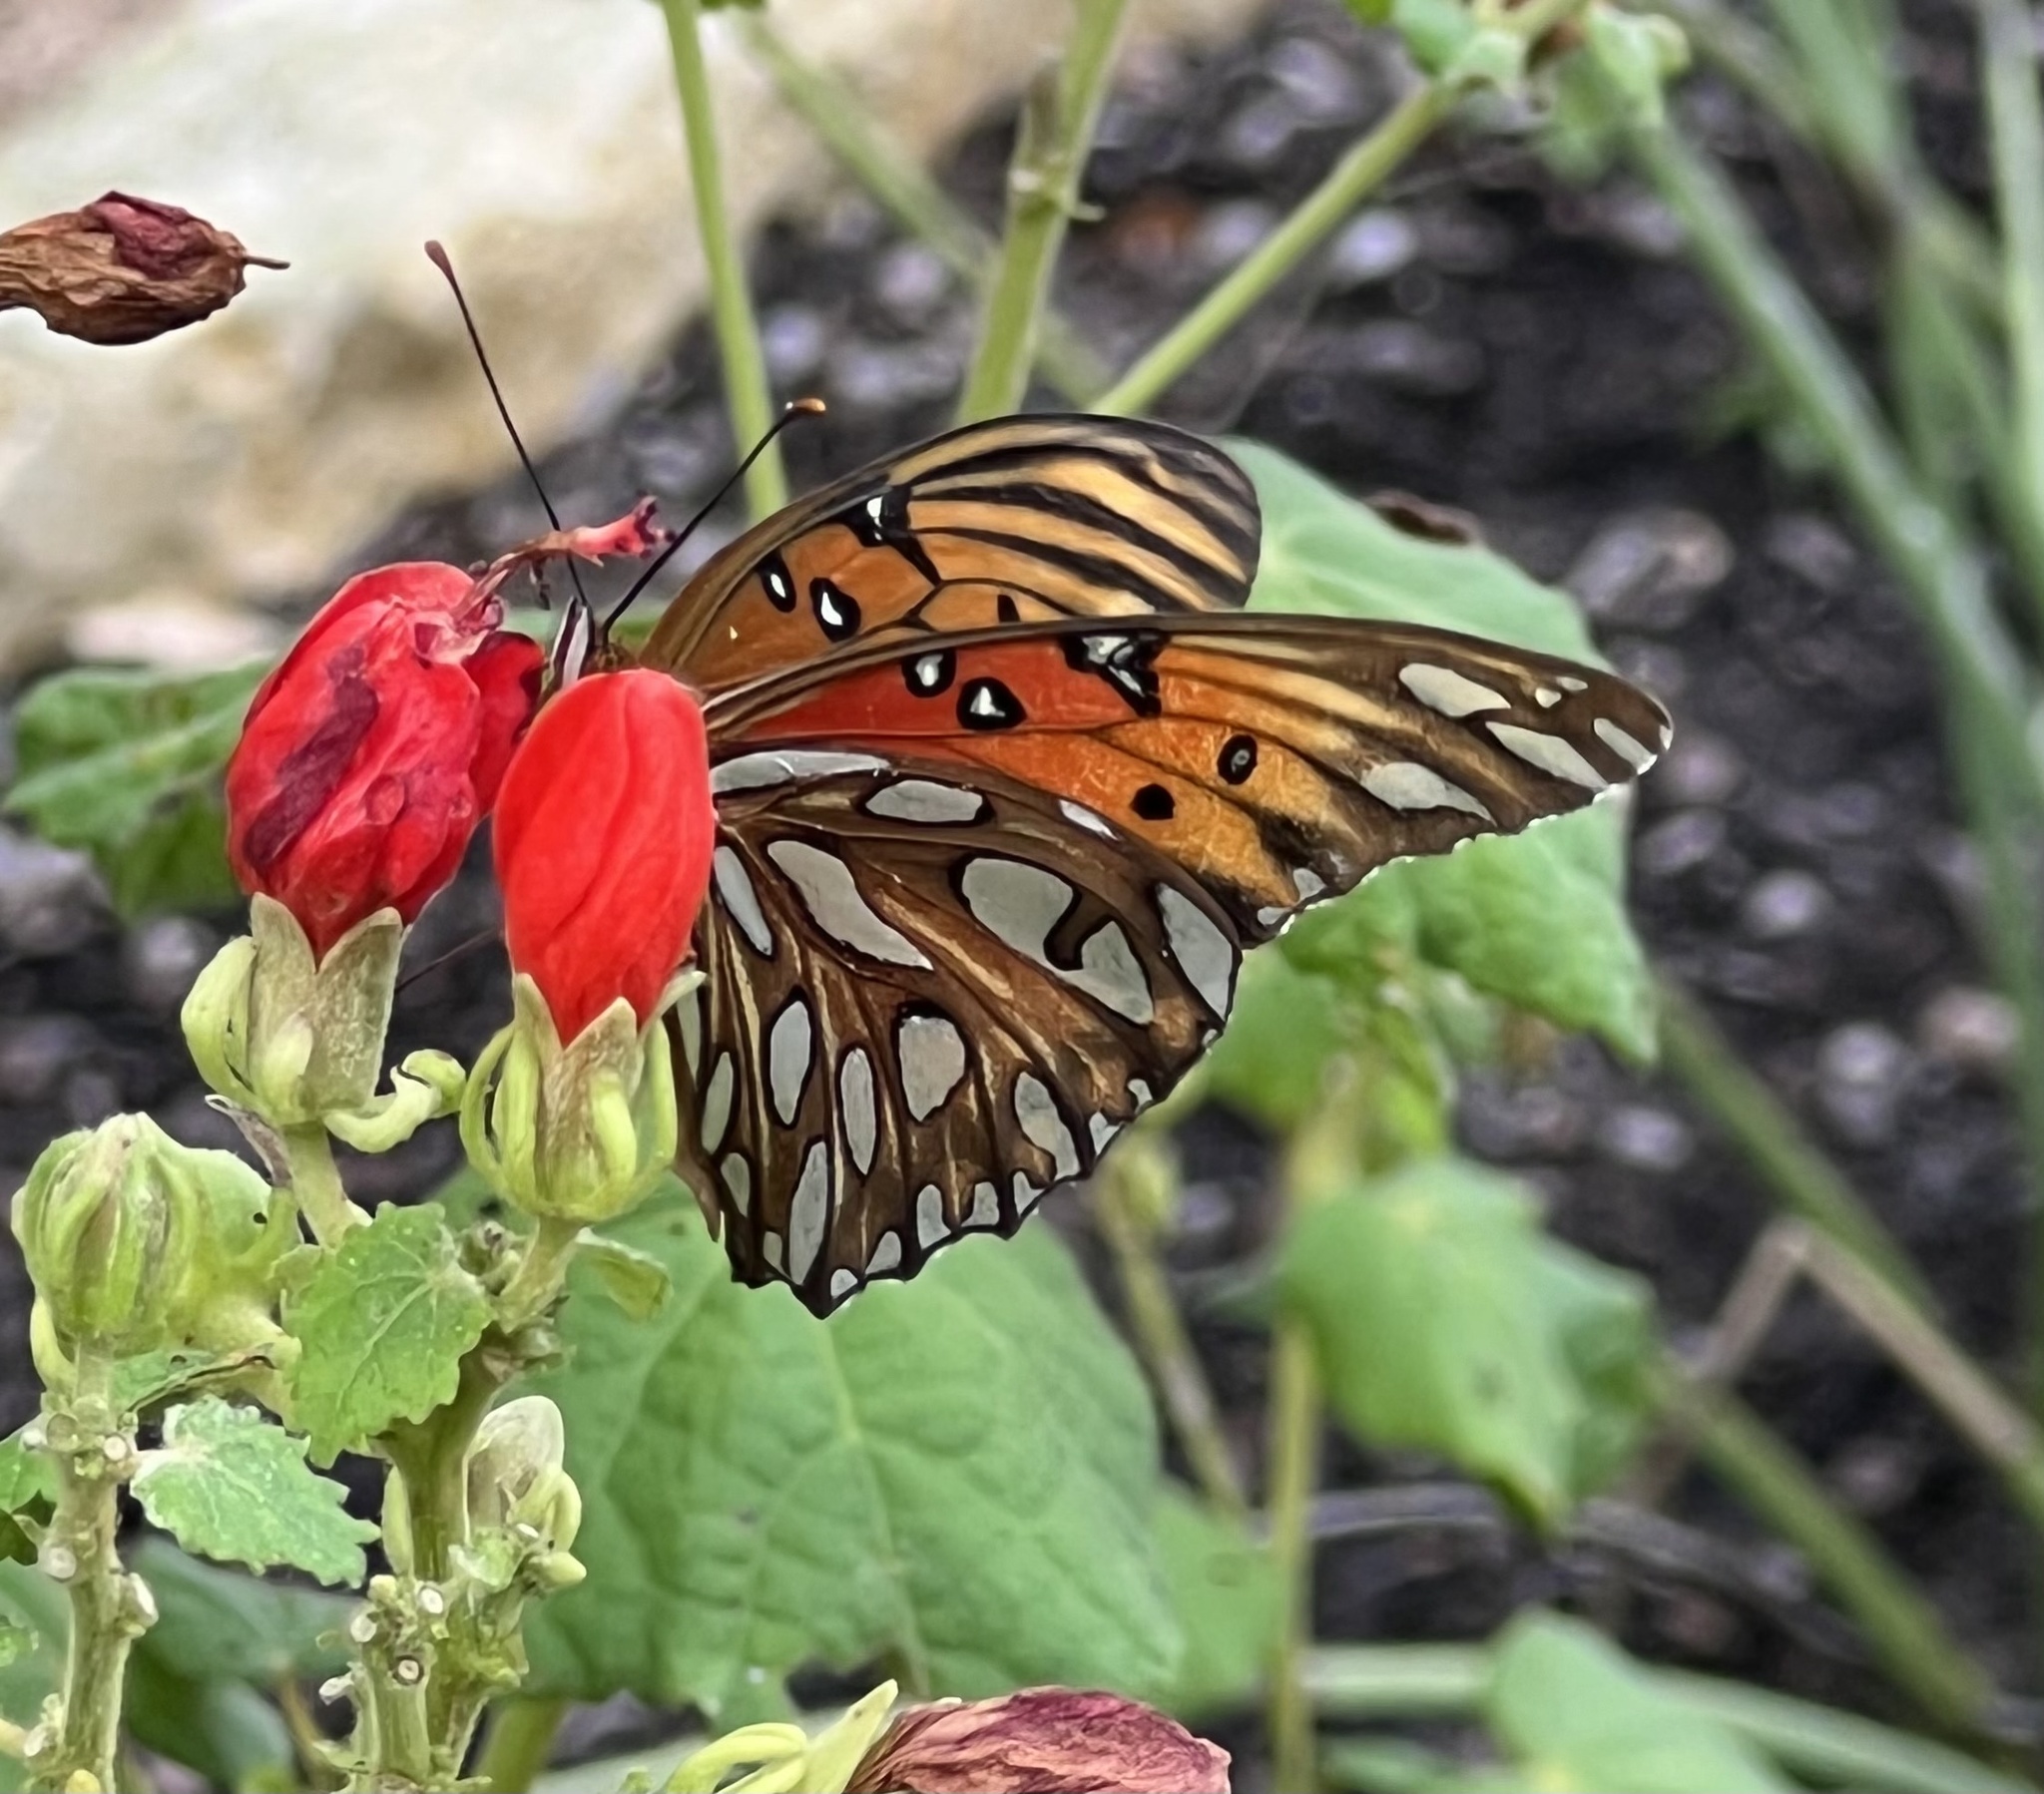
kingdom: Animalia
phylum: Arthropoda
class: Insecta
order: Lepidoptera
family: Nymphalidae
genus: Dione
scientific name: Dione vanillae
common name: Gulf fritillary
